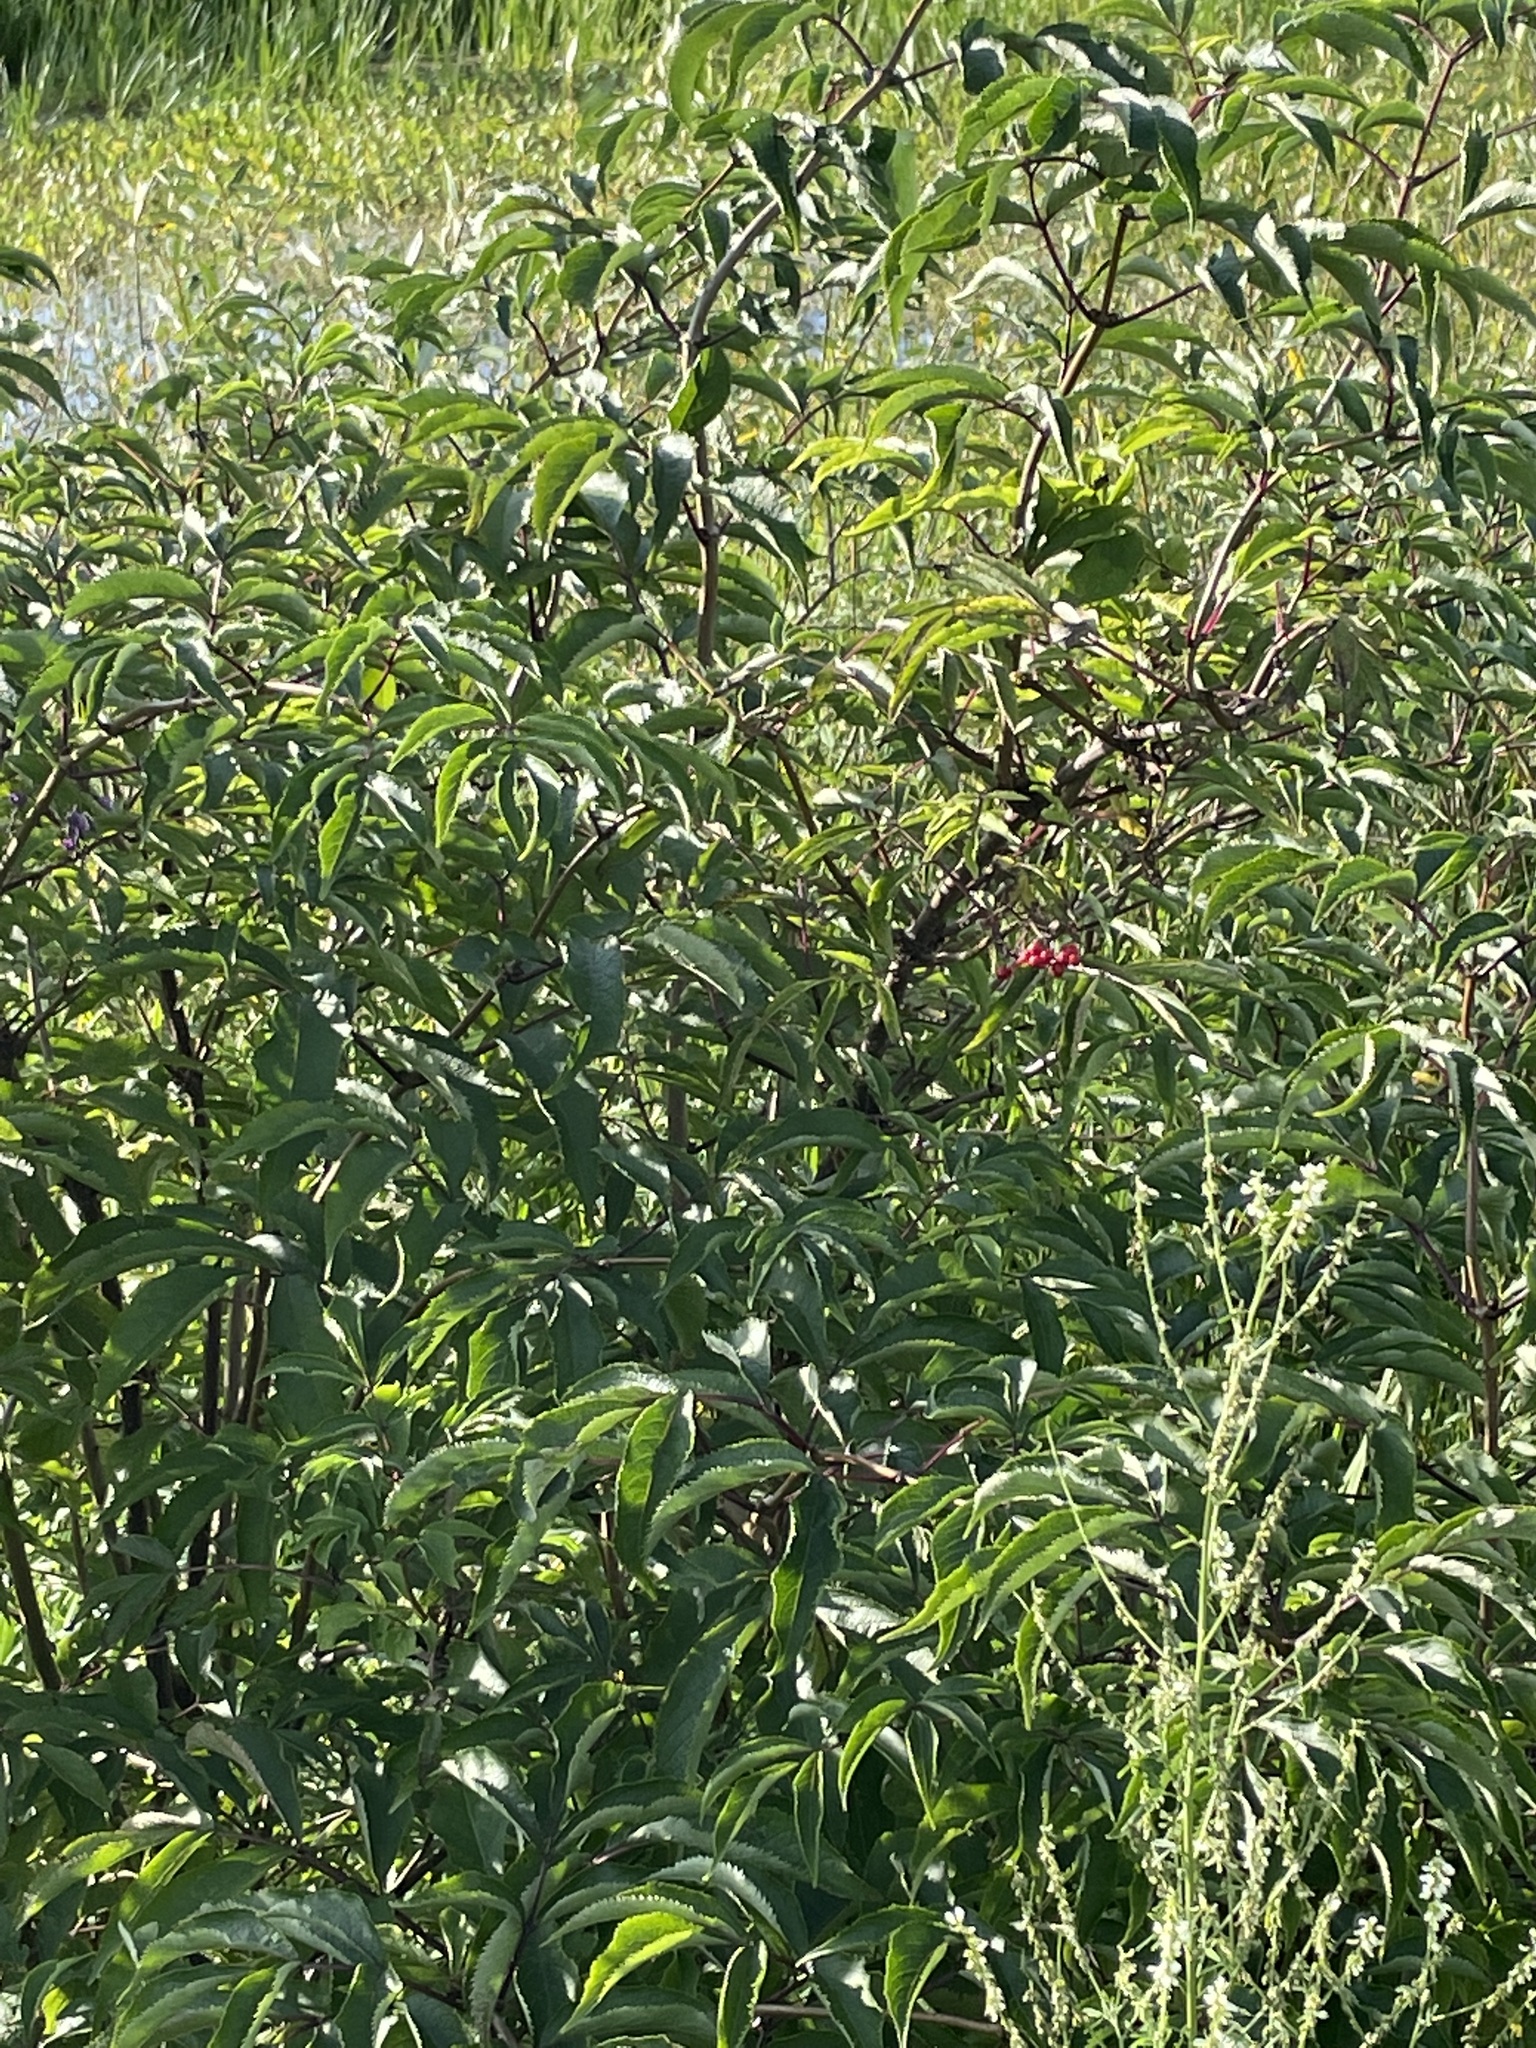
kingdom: Plantae
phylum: Tracheophyta
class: Magnoliopsida
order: Dipsacales
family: Viburnaceae
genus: Sambucus
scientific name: Sambucus racemosa
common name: Red-berried elder
